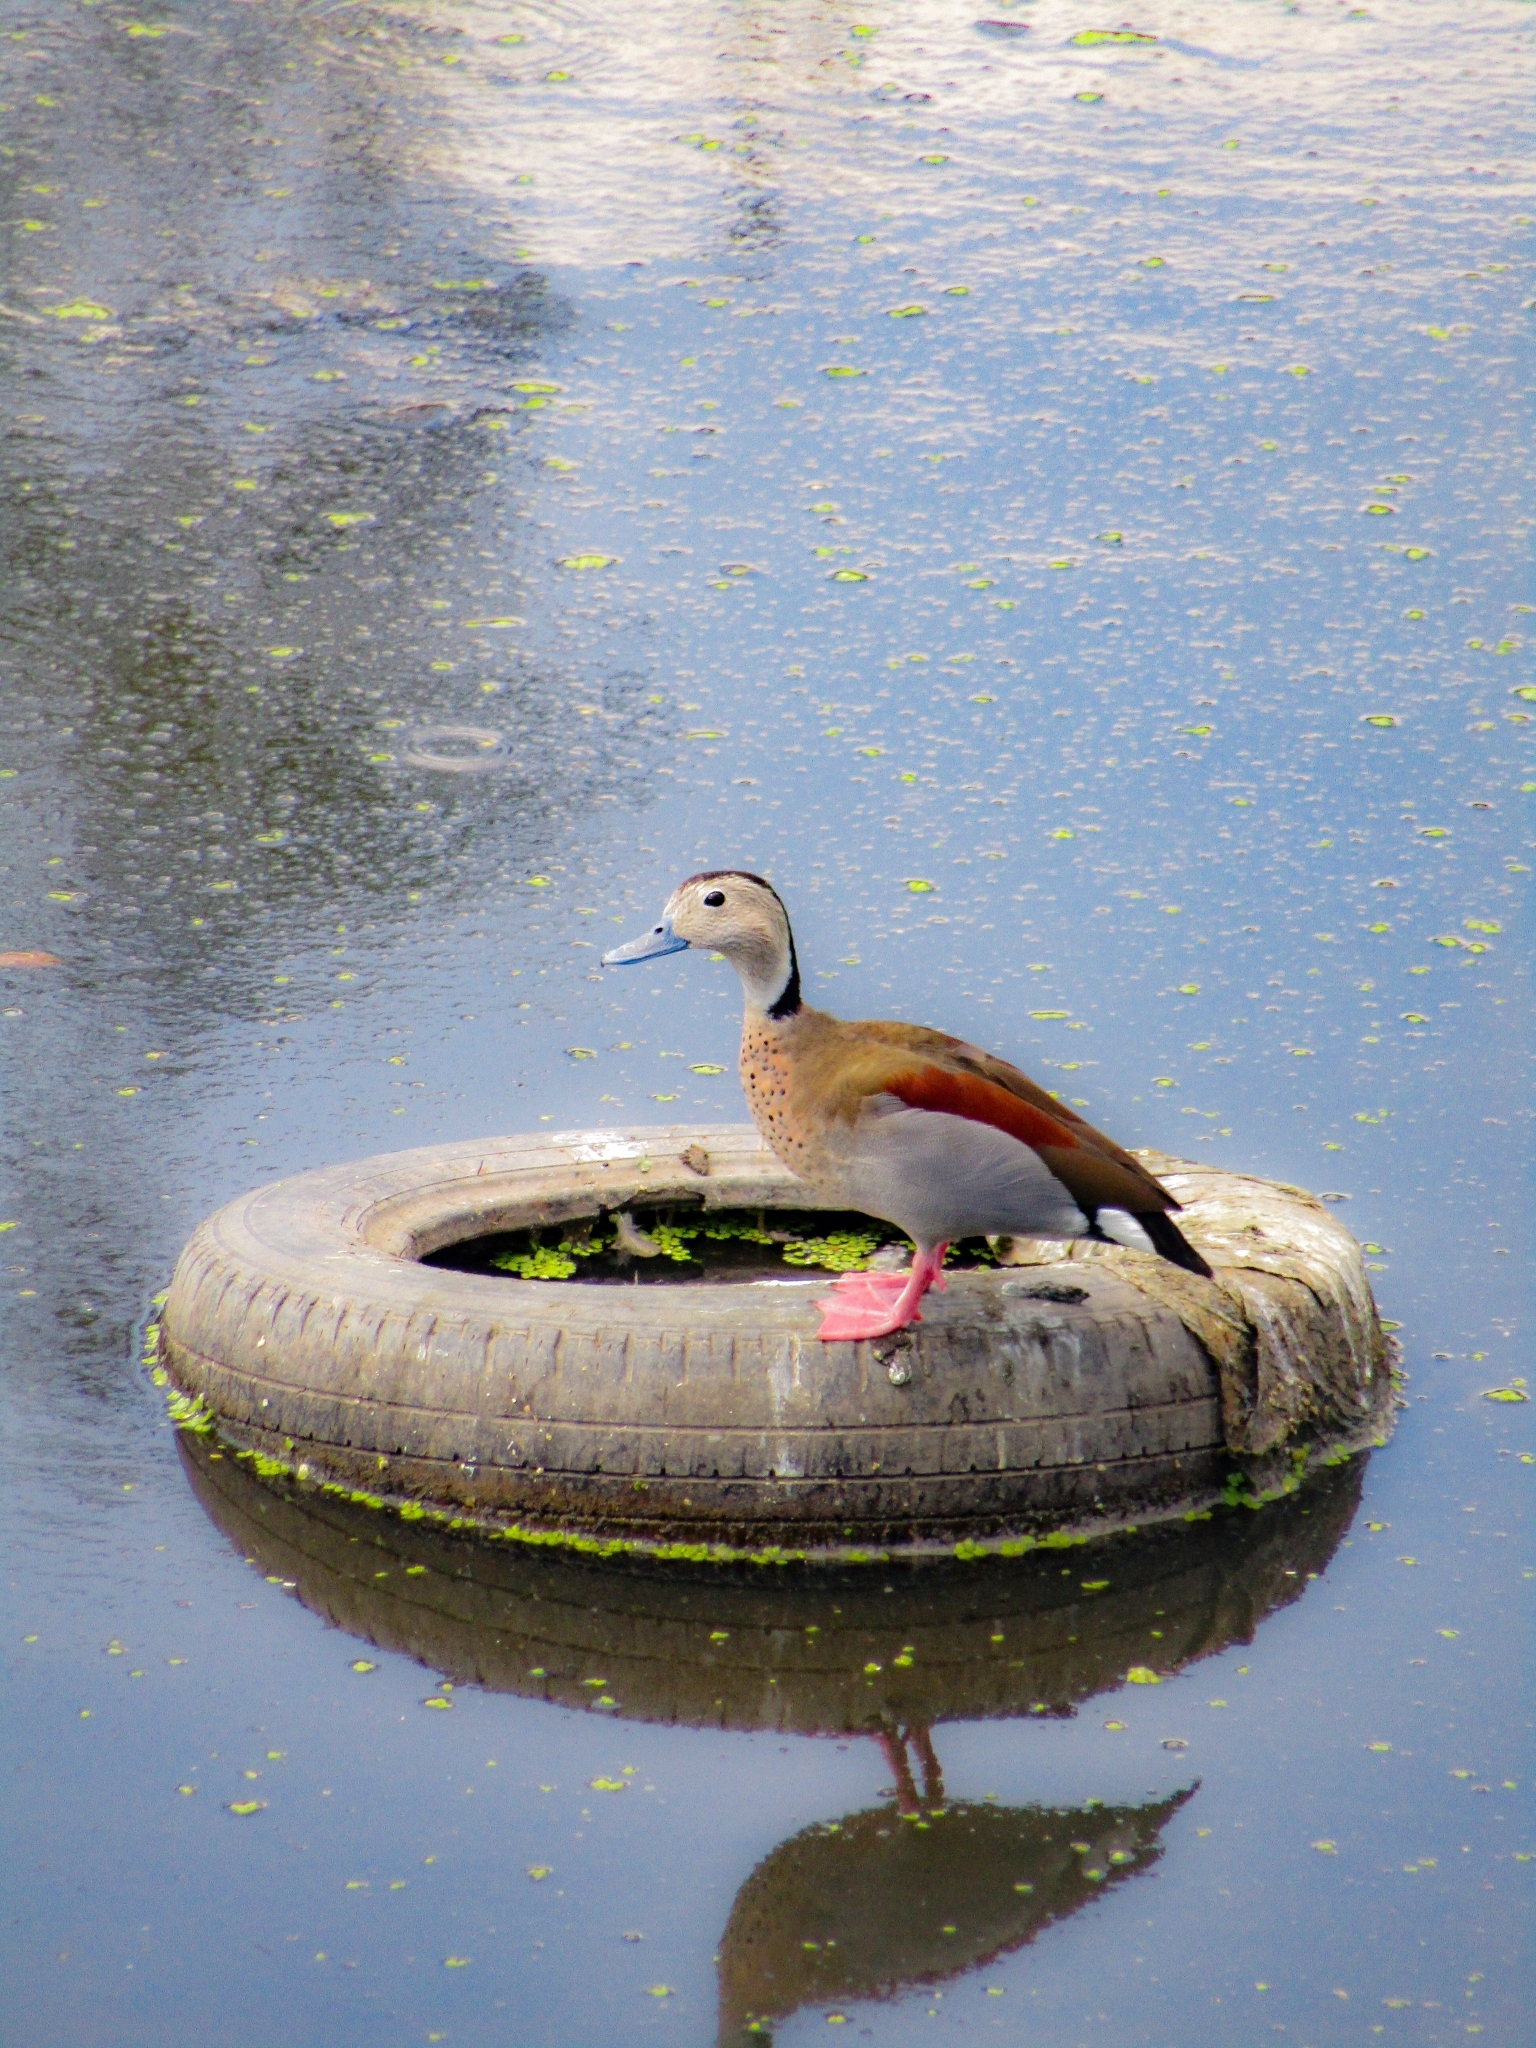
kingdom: Animalia
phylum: Chordata
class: Aves
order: Anseriformes
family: Anatidae
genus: Callonetta
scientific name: Callonetta leucophrys
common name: Ringed teal
